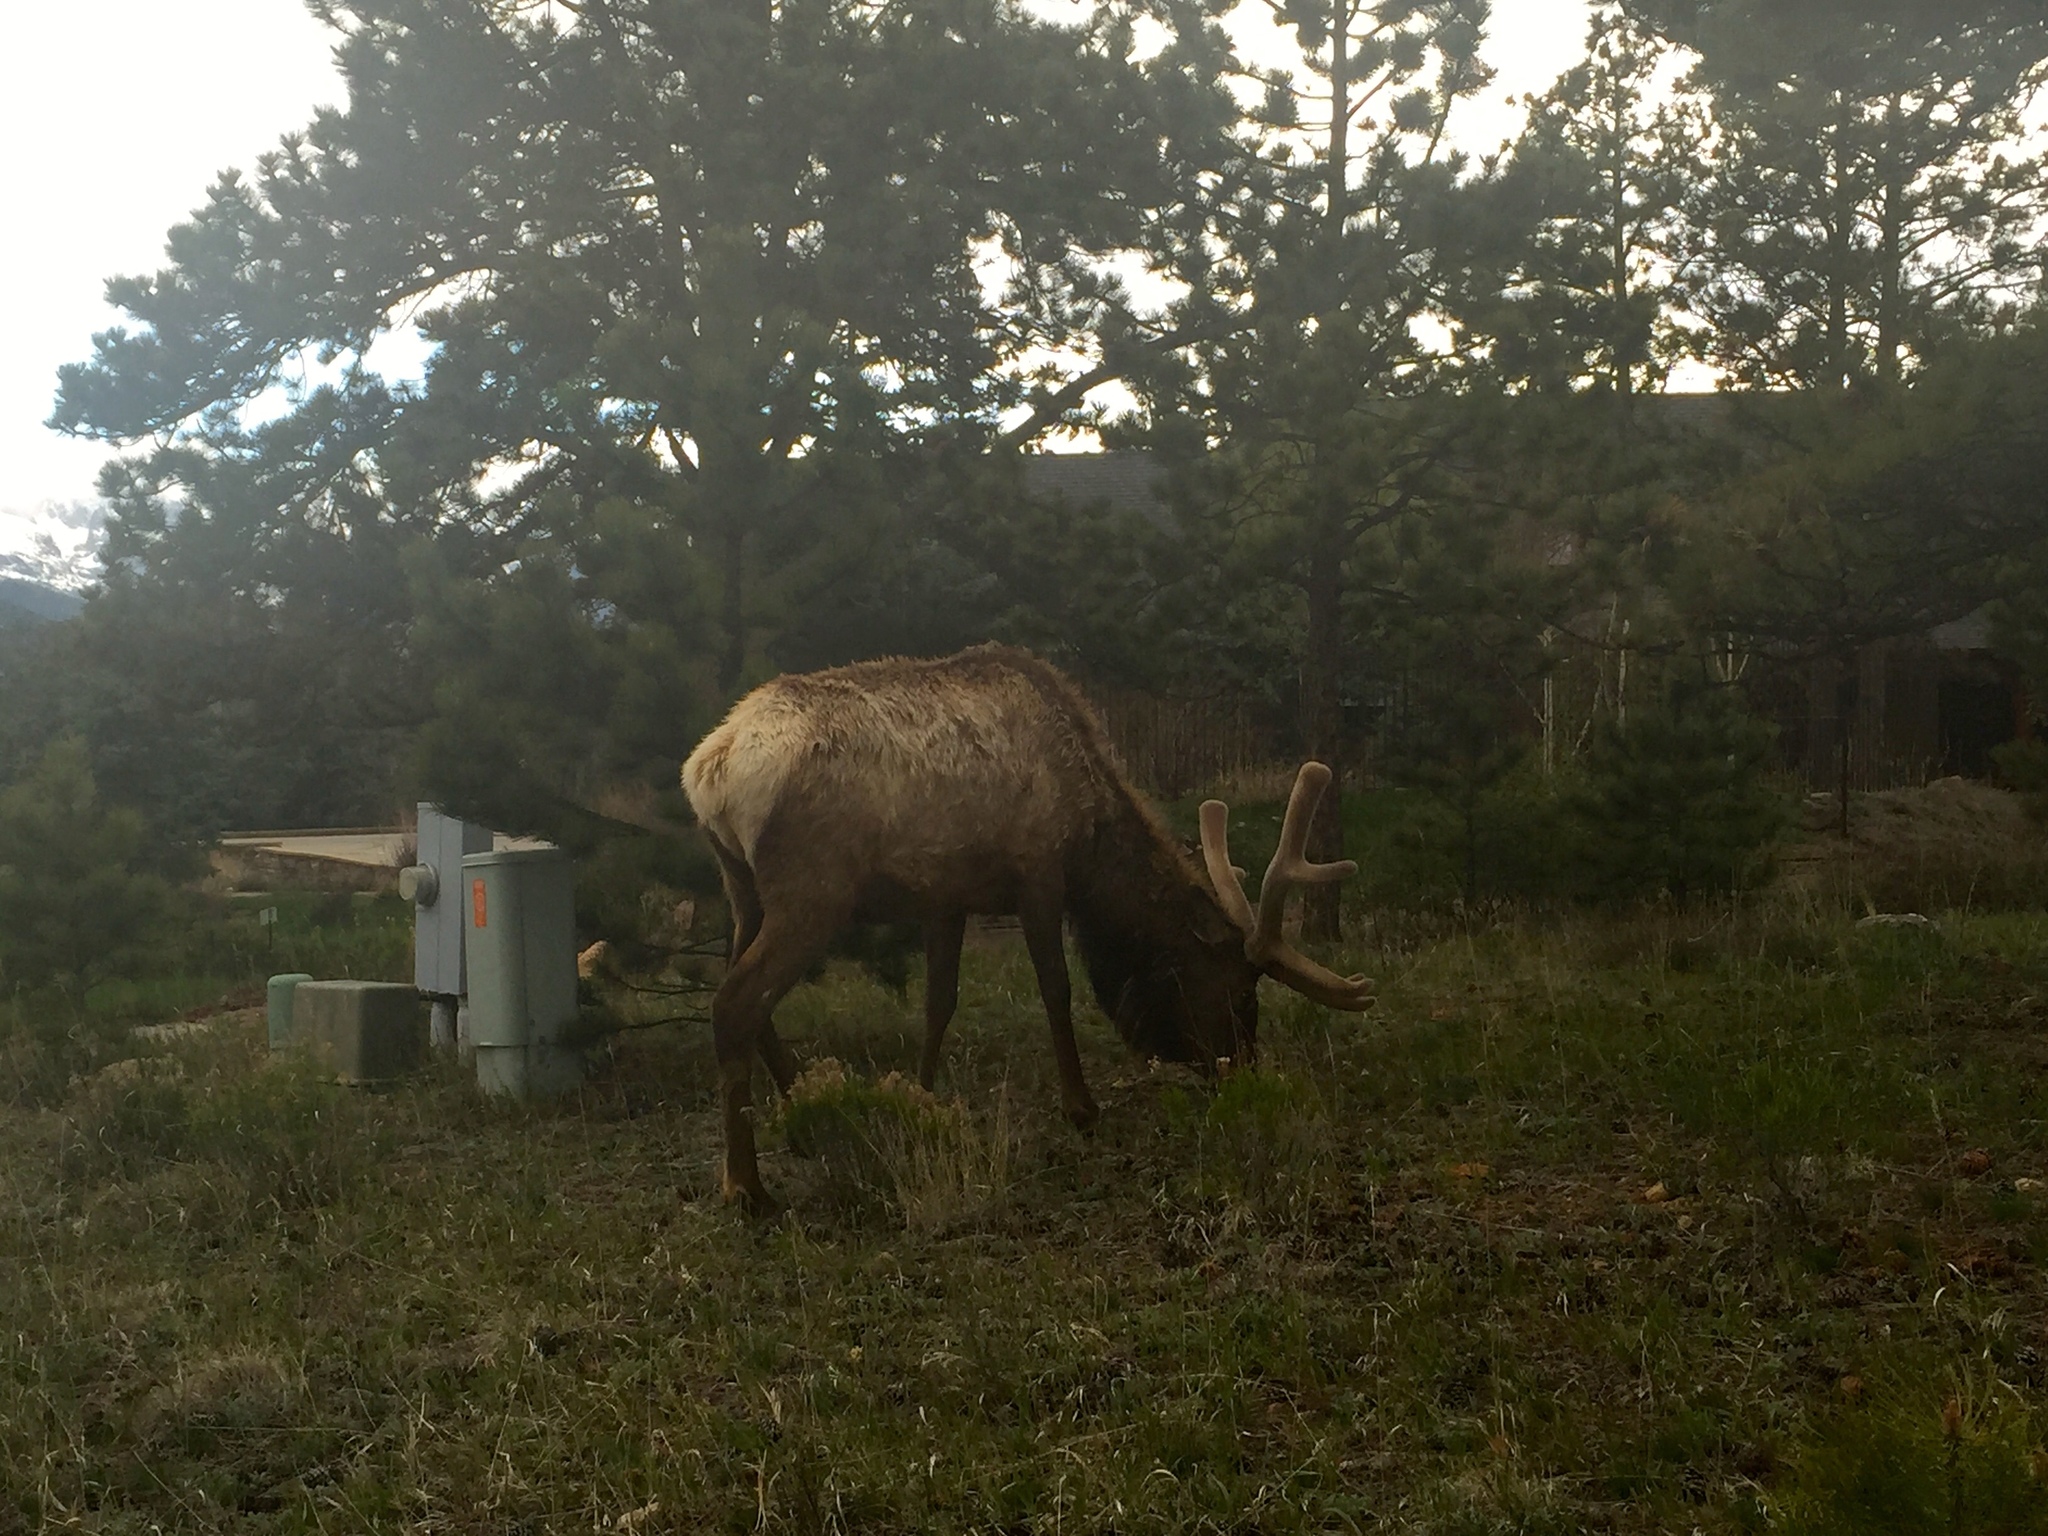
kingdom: Animalia
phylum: Chordata
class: Mammalia
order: Artiodactyla
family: Cervidae
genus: Cervus
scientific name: Cervus elaphus
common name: Red deer
